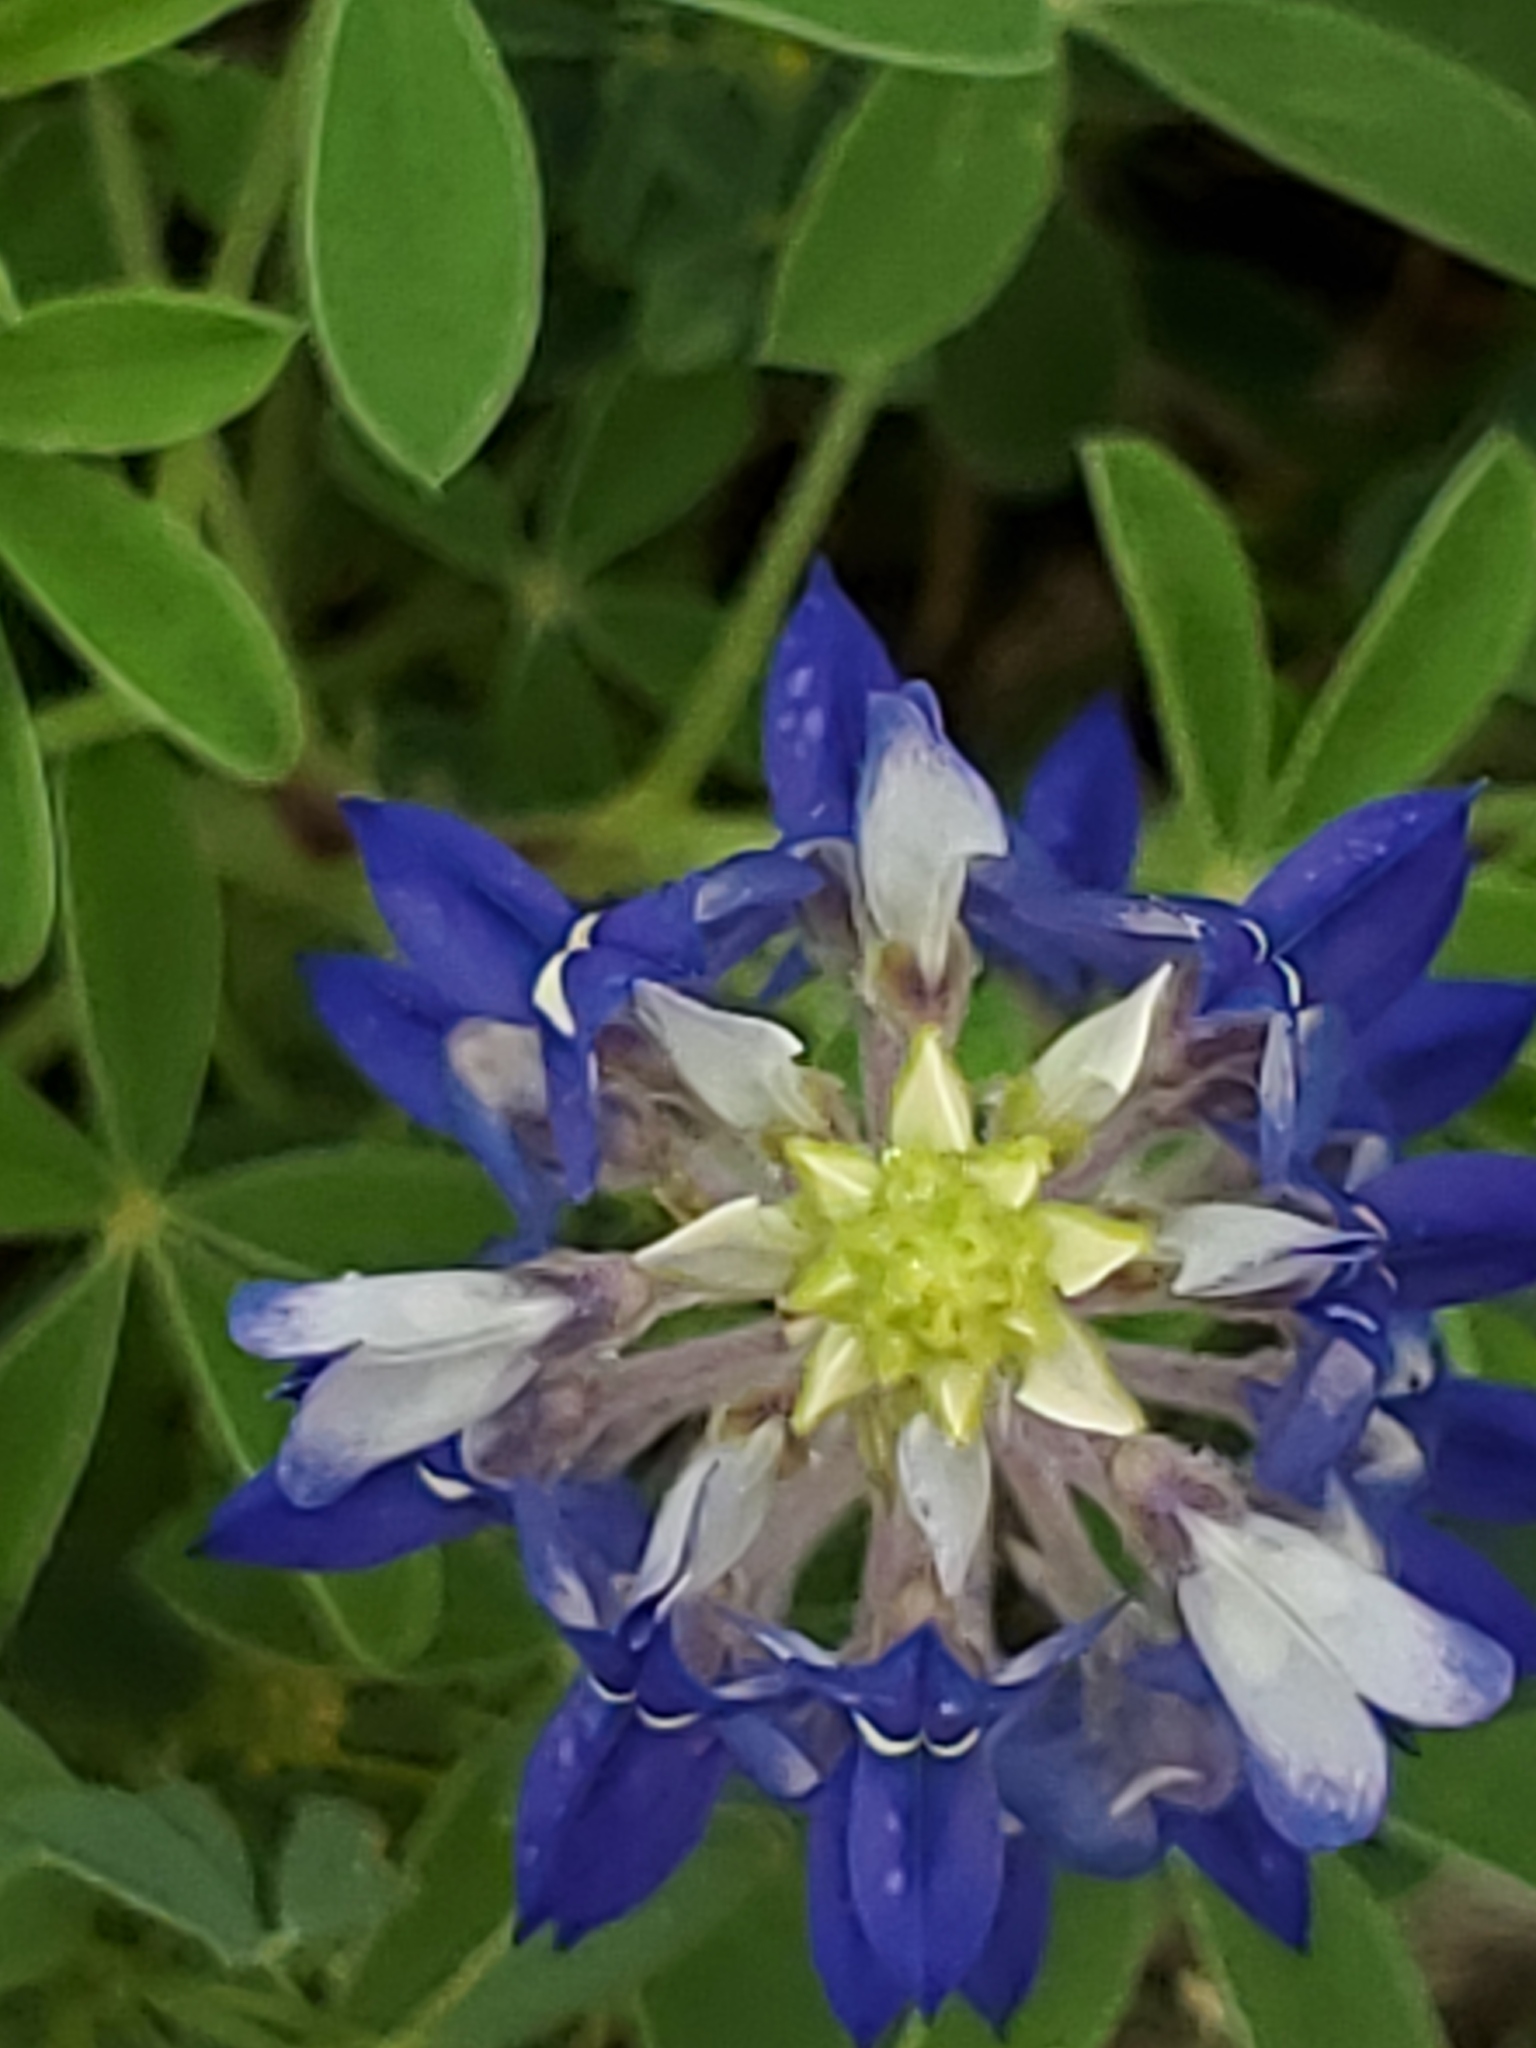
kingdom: Plantae
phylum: Tracheophyta
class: Magnoliopsida
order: Fabales
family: Fabaceae
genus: Lupinus
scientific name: Lupinus texensis
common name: Texas bluebonnet
